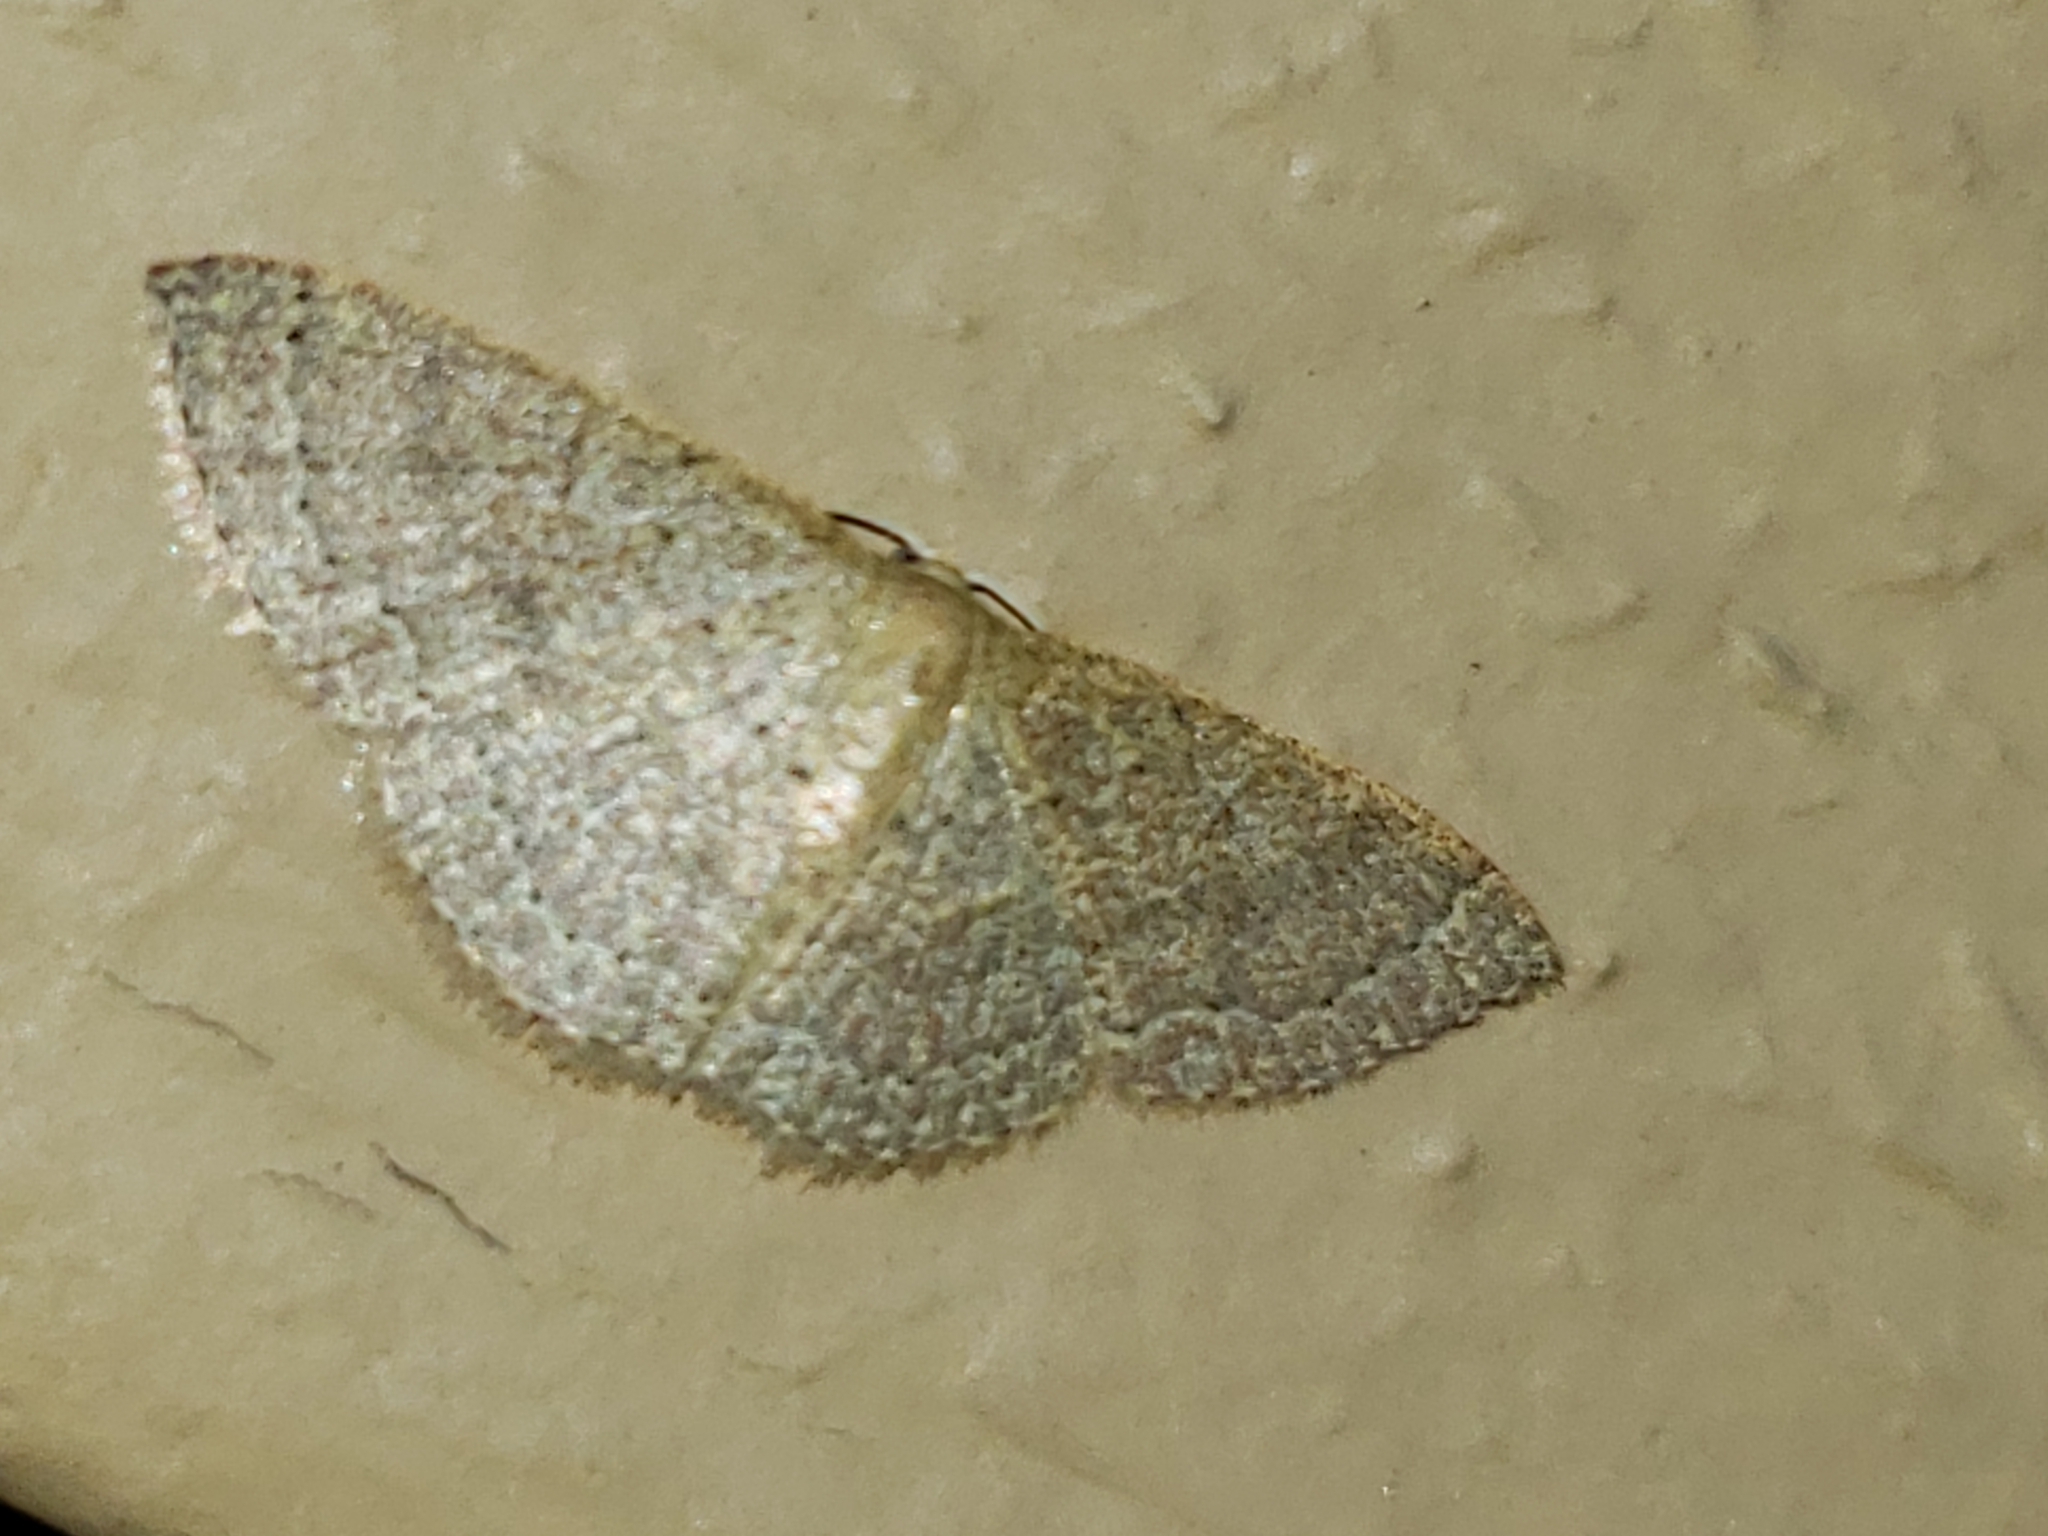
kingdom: Animalia
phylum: Arthropoda
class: Insecta
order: Lepidoptera
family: Geometridae
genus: Pleuroprucha
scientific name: Pleuroprucha insulsaria
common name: Common tan wave
